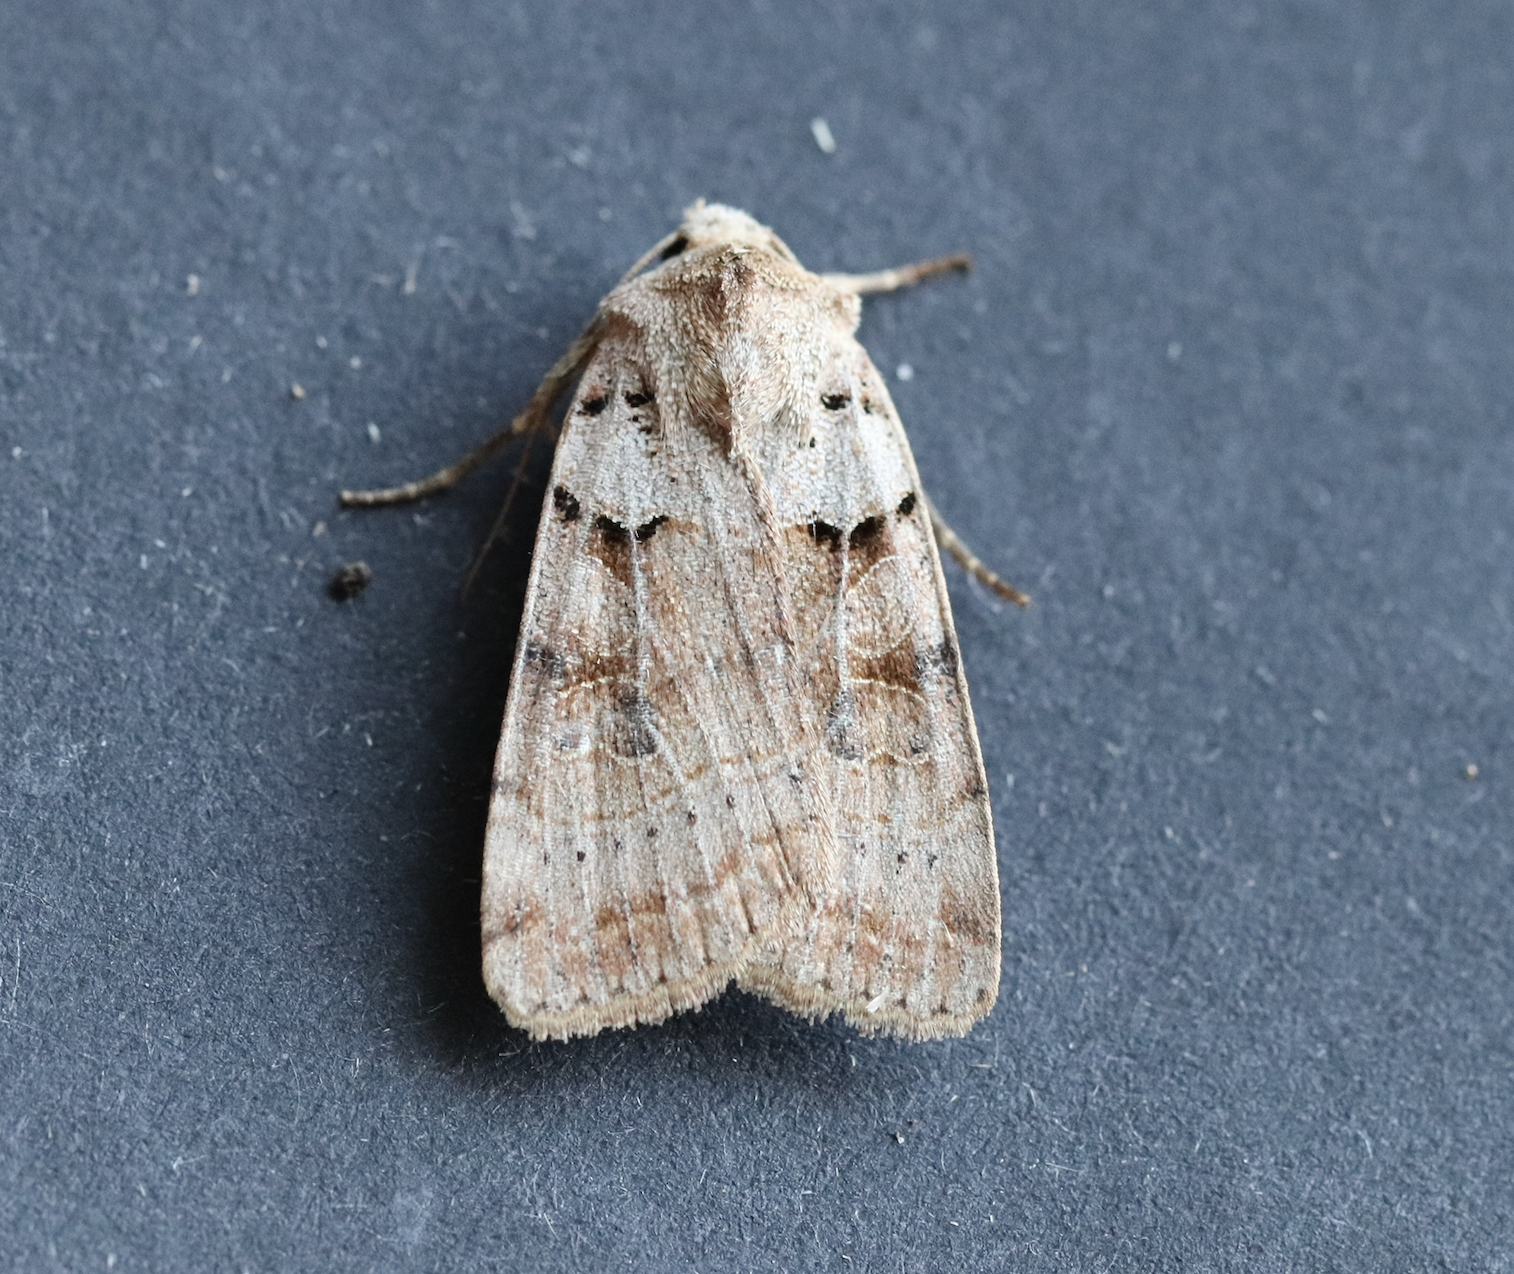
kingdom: Animalia
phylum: Arthropoda
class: Insecta
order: Lepidoptera
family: Noctuidae
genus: Eugnorisma
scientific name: Eugnorisma depuncta
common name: Plain clay
